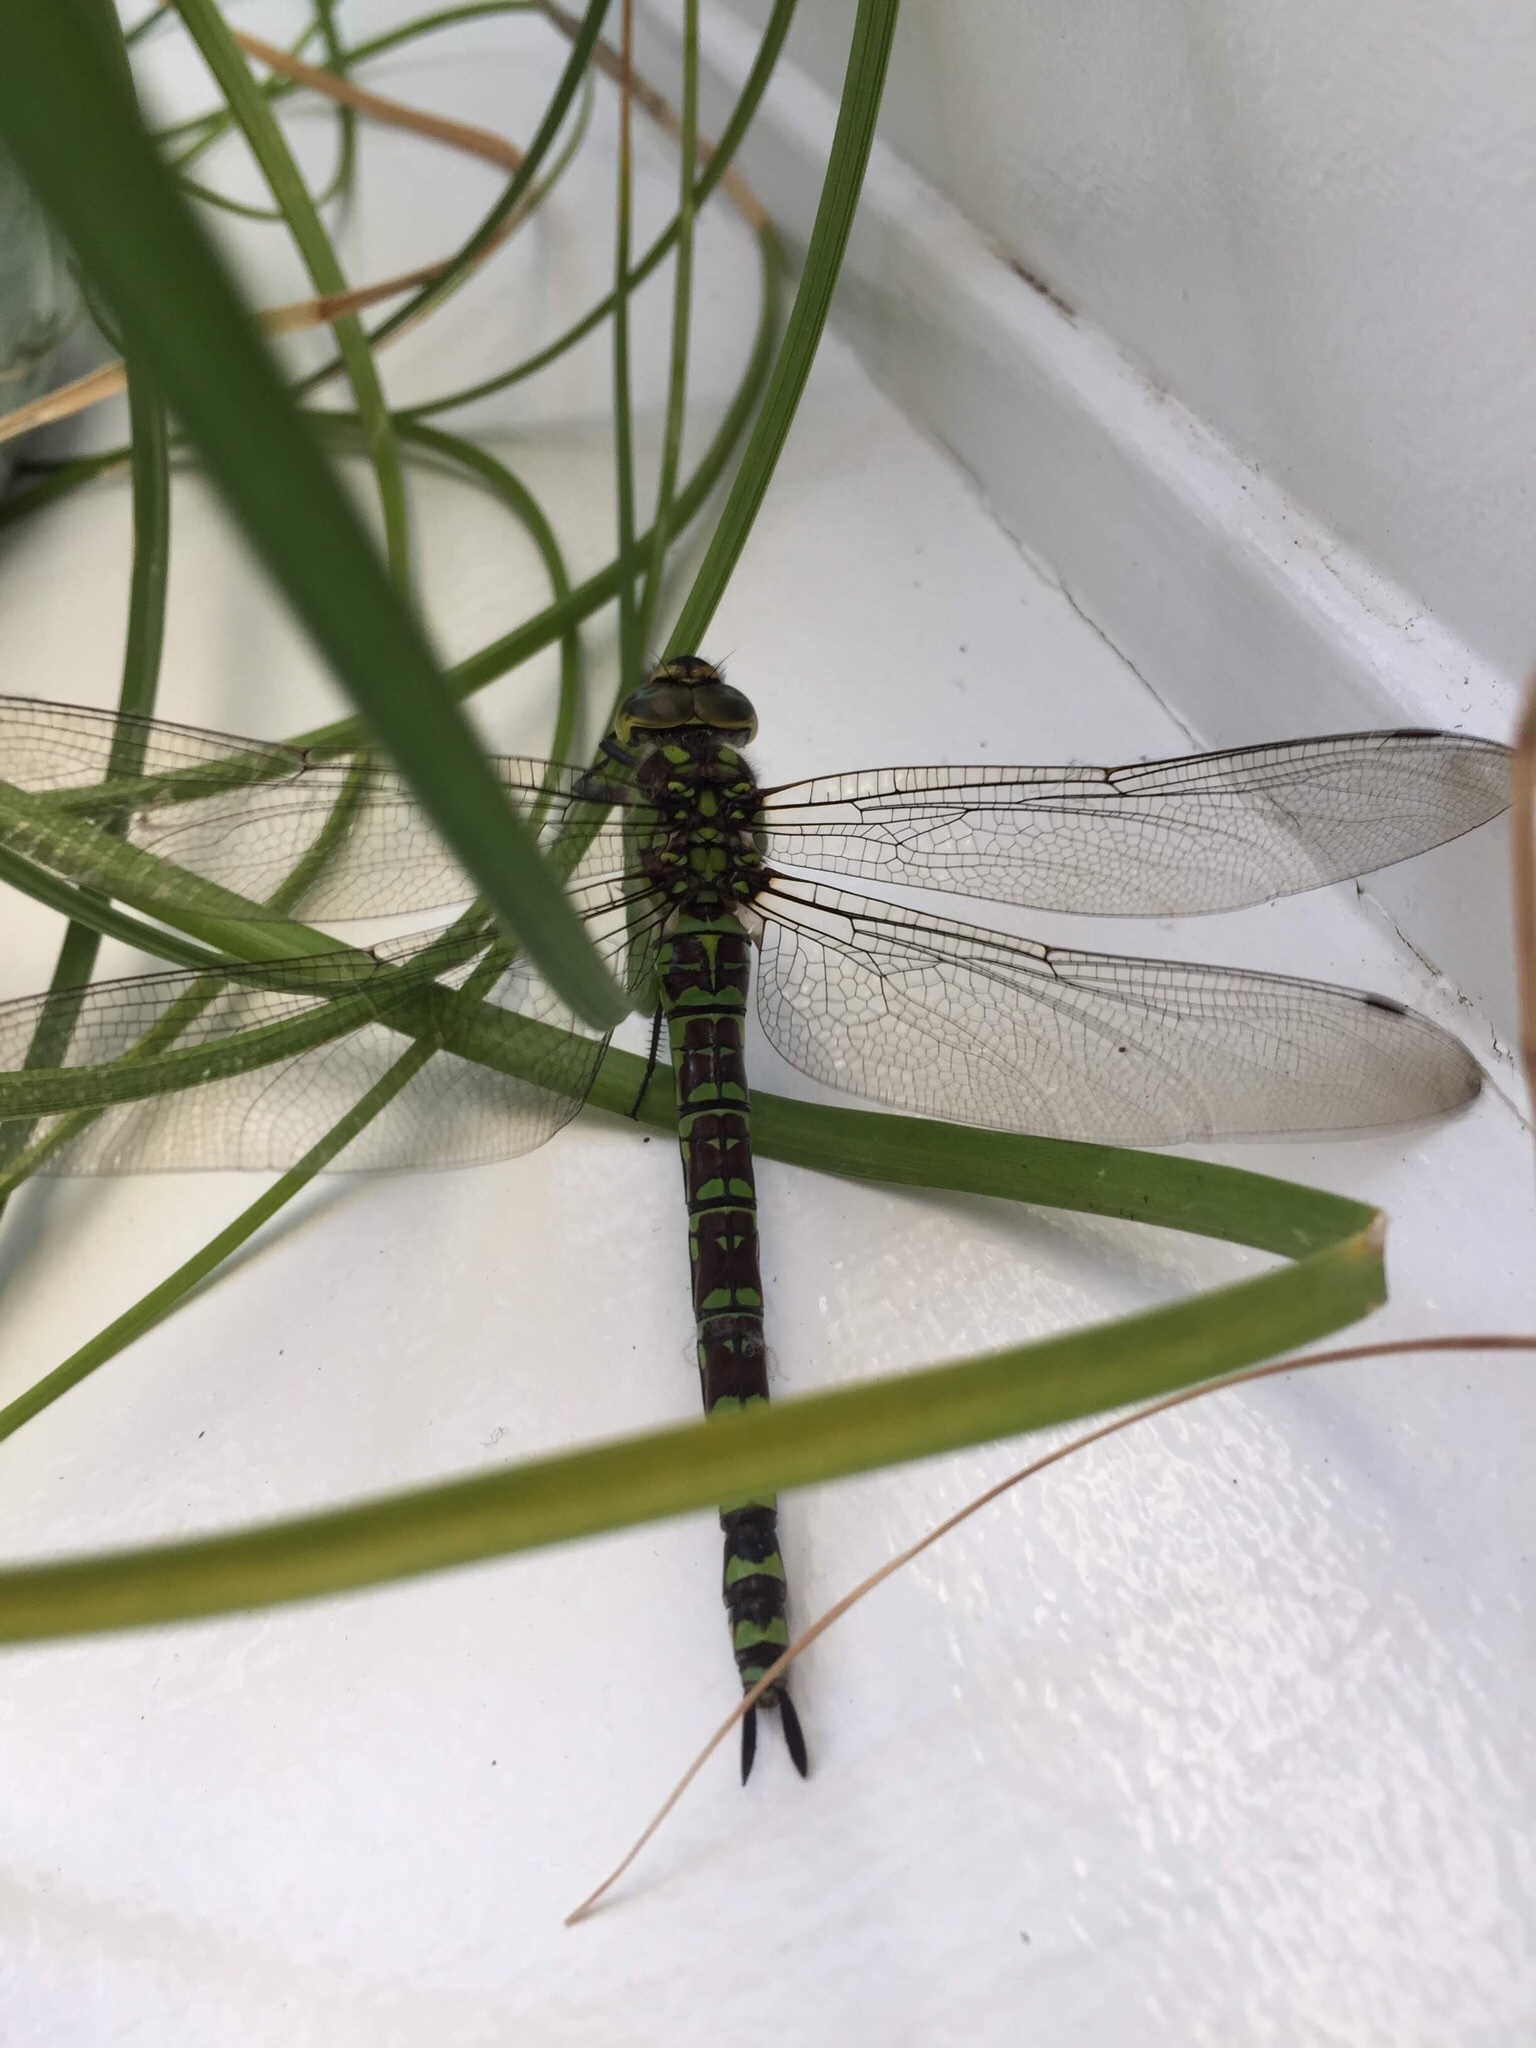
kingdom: Animalia
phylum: Arthropoda
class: Insecta
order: Odonata
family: Aeshnidae
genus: Aeshna
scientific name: Aeshna cyanea
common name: Southern hawker
